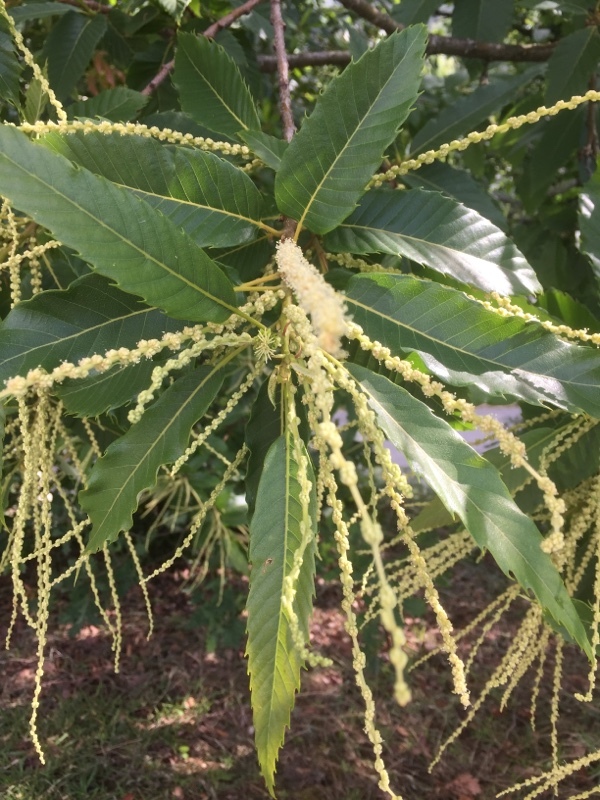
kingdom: Plantae
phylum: Tracheophyta
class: Magnoliopsida
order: Fagales
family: Fagaceae
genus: Castanea
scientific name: Castanea sativa
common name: Sweet chestnut
